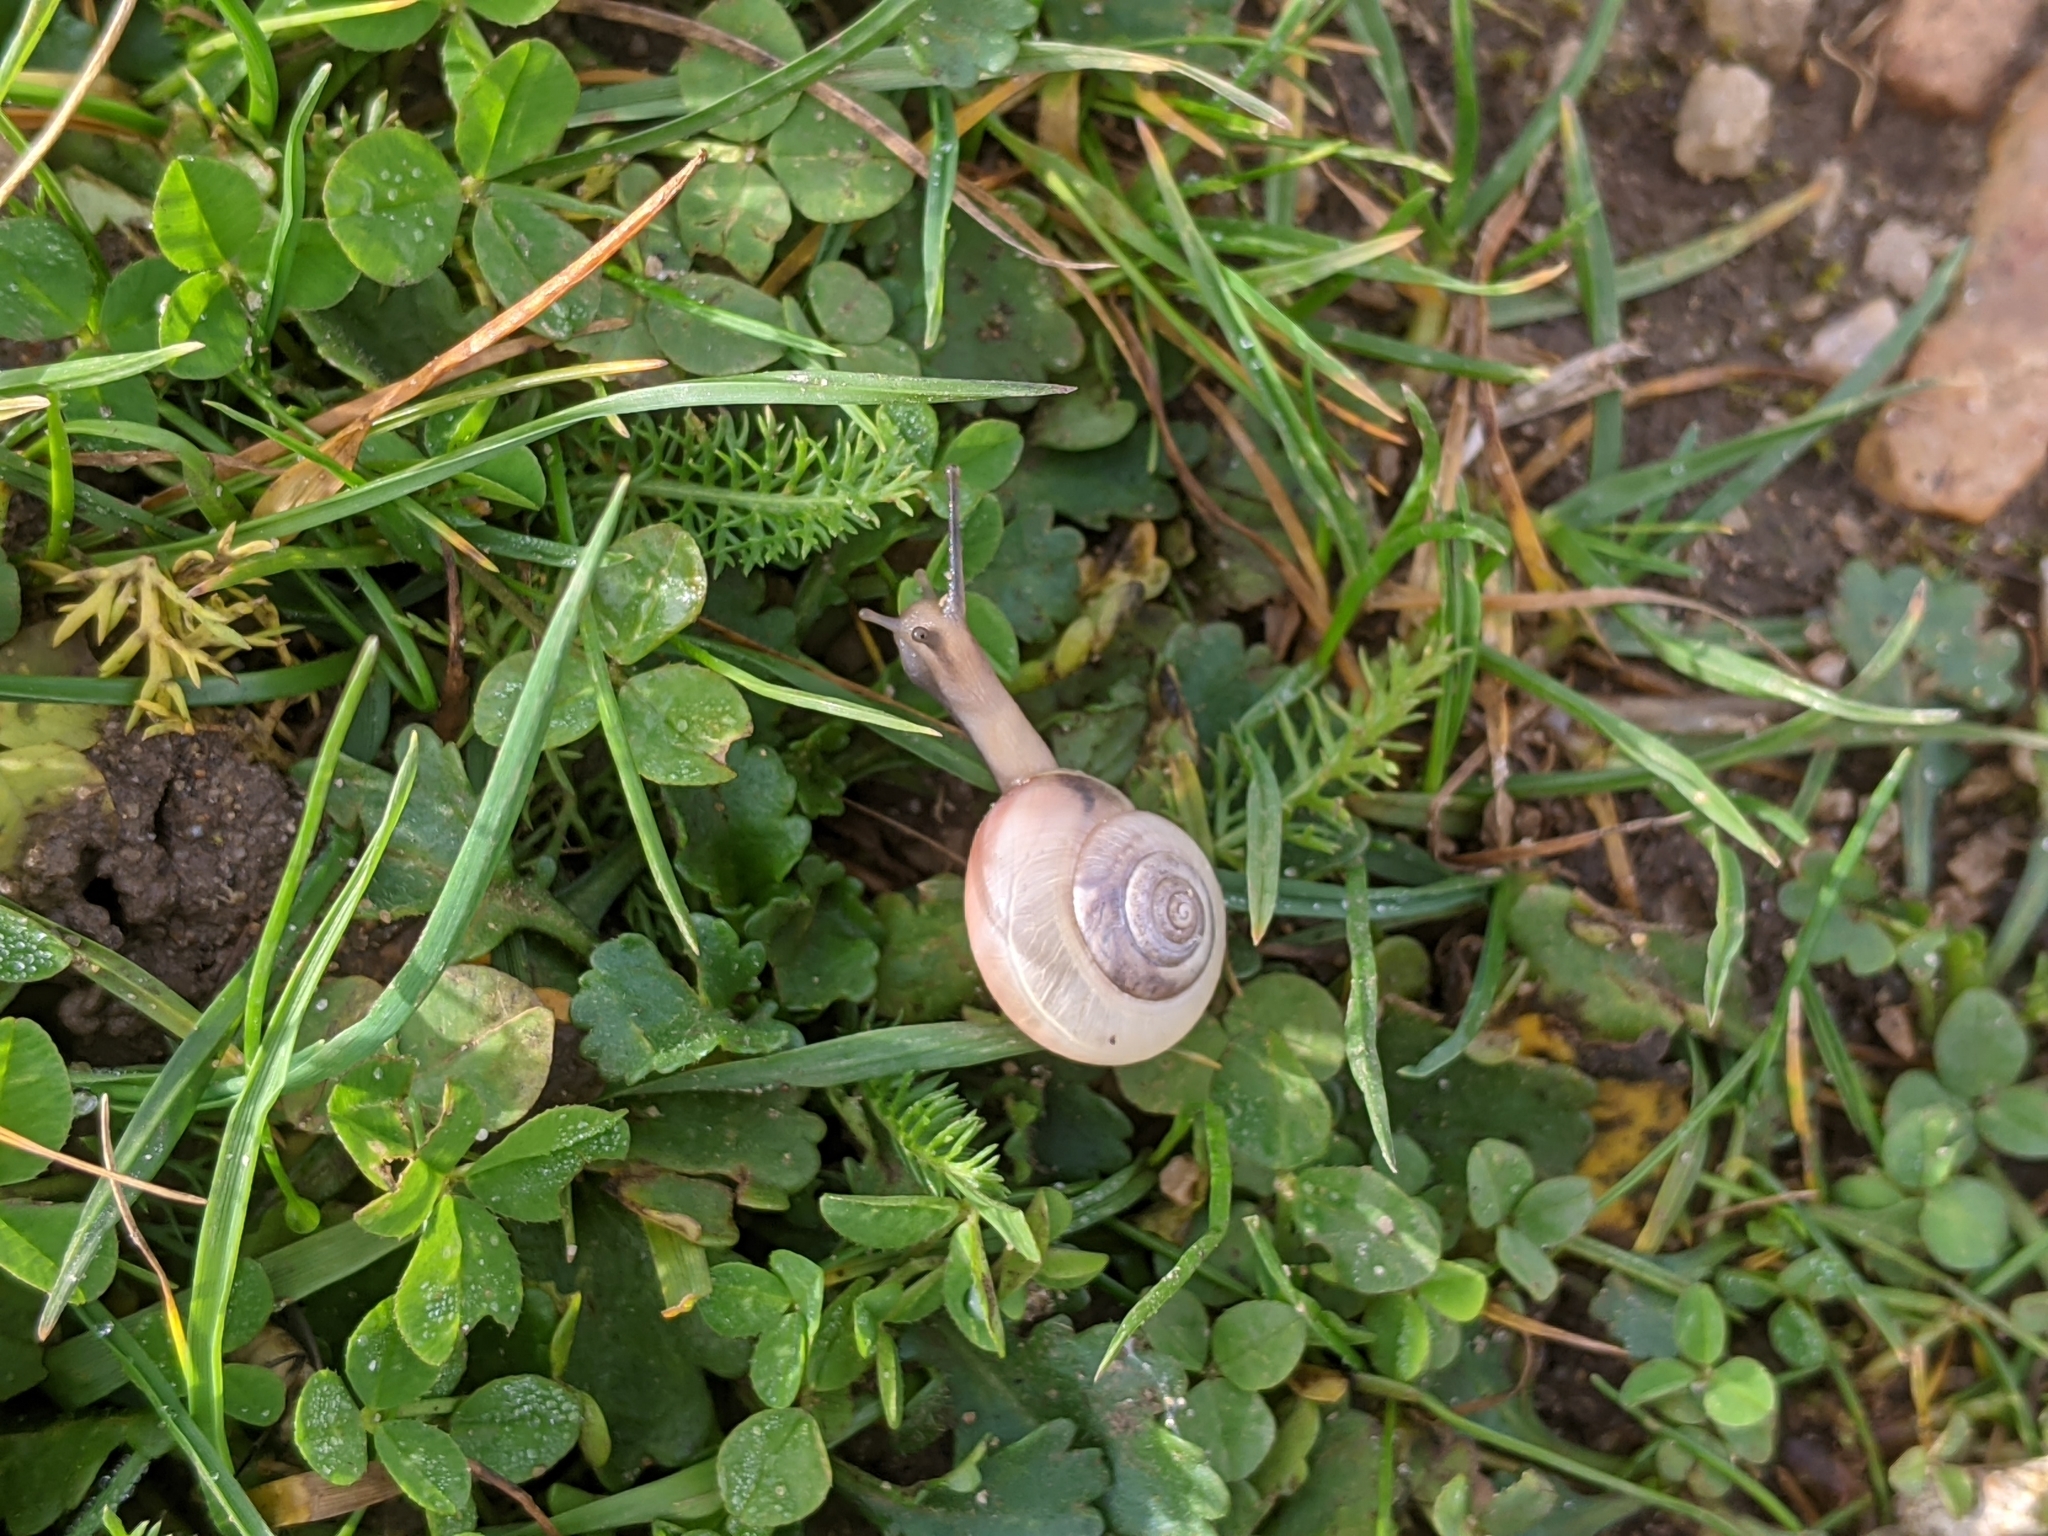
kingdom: Animalia
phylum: Mollusca
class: Gastropoda
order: Stylommatophora
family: Hygromiidae
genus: Monacha
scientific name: Monacha cantiana
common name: Kentish snail
